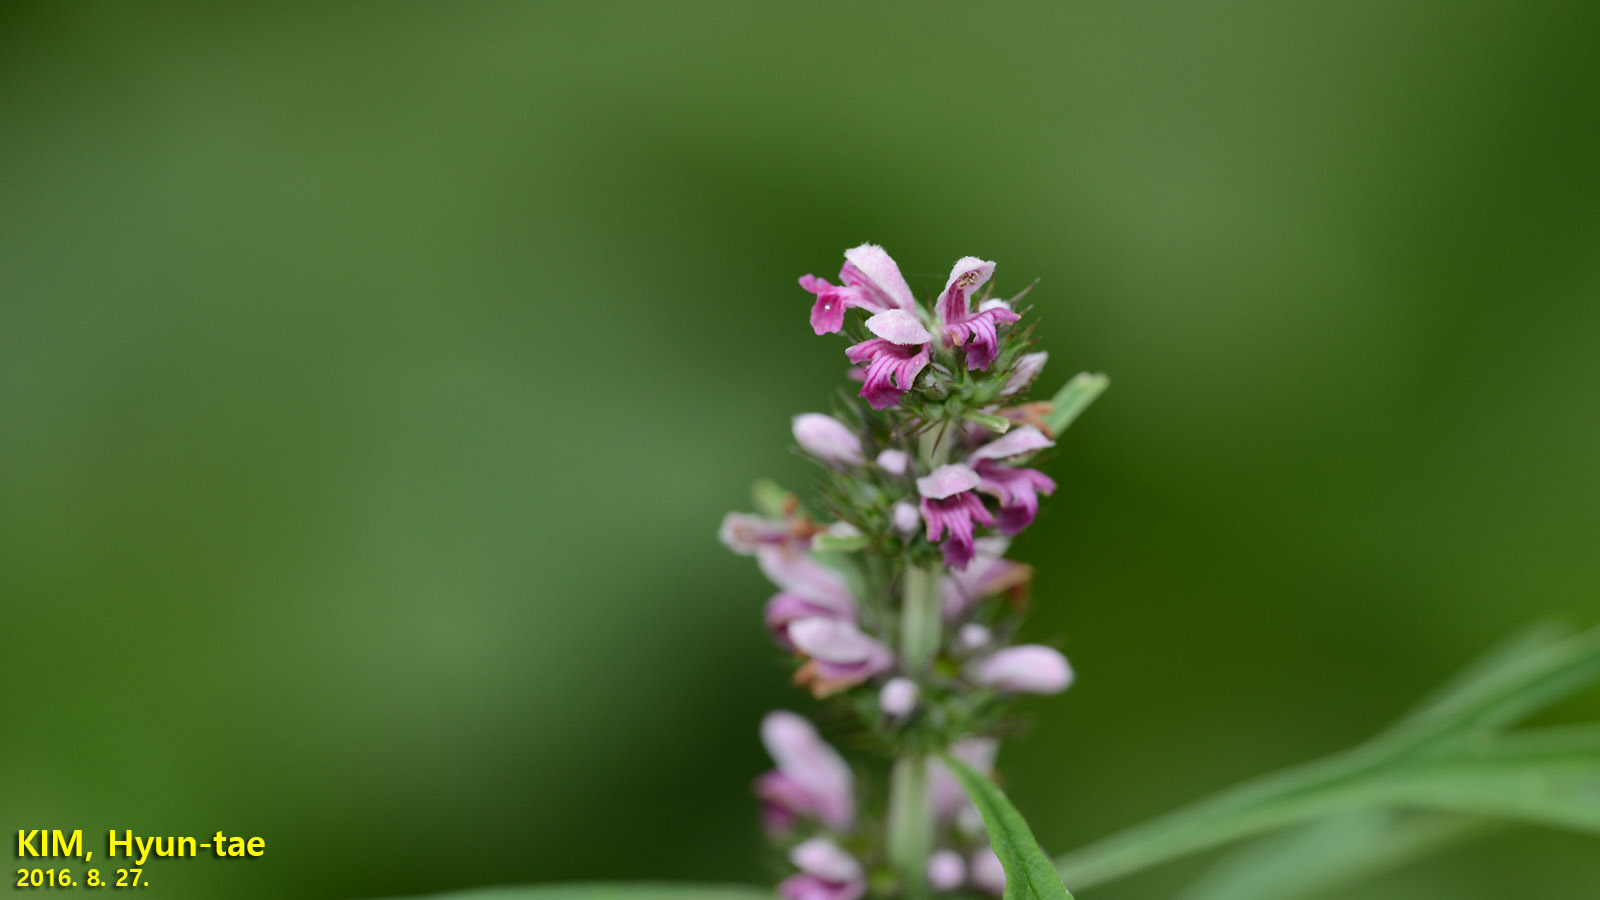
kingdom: Plantae
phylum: Tracheophyta
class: Magnoliopsida
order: Lamiales
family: Lamiaceae
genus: Leonurus
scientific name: Leonurus japonicus
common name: Honeyweed
